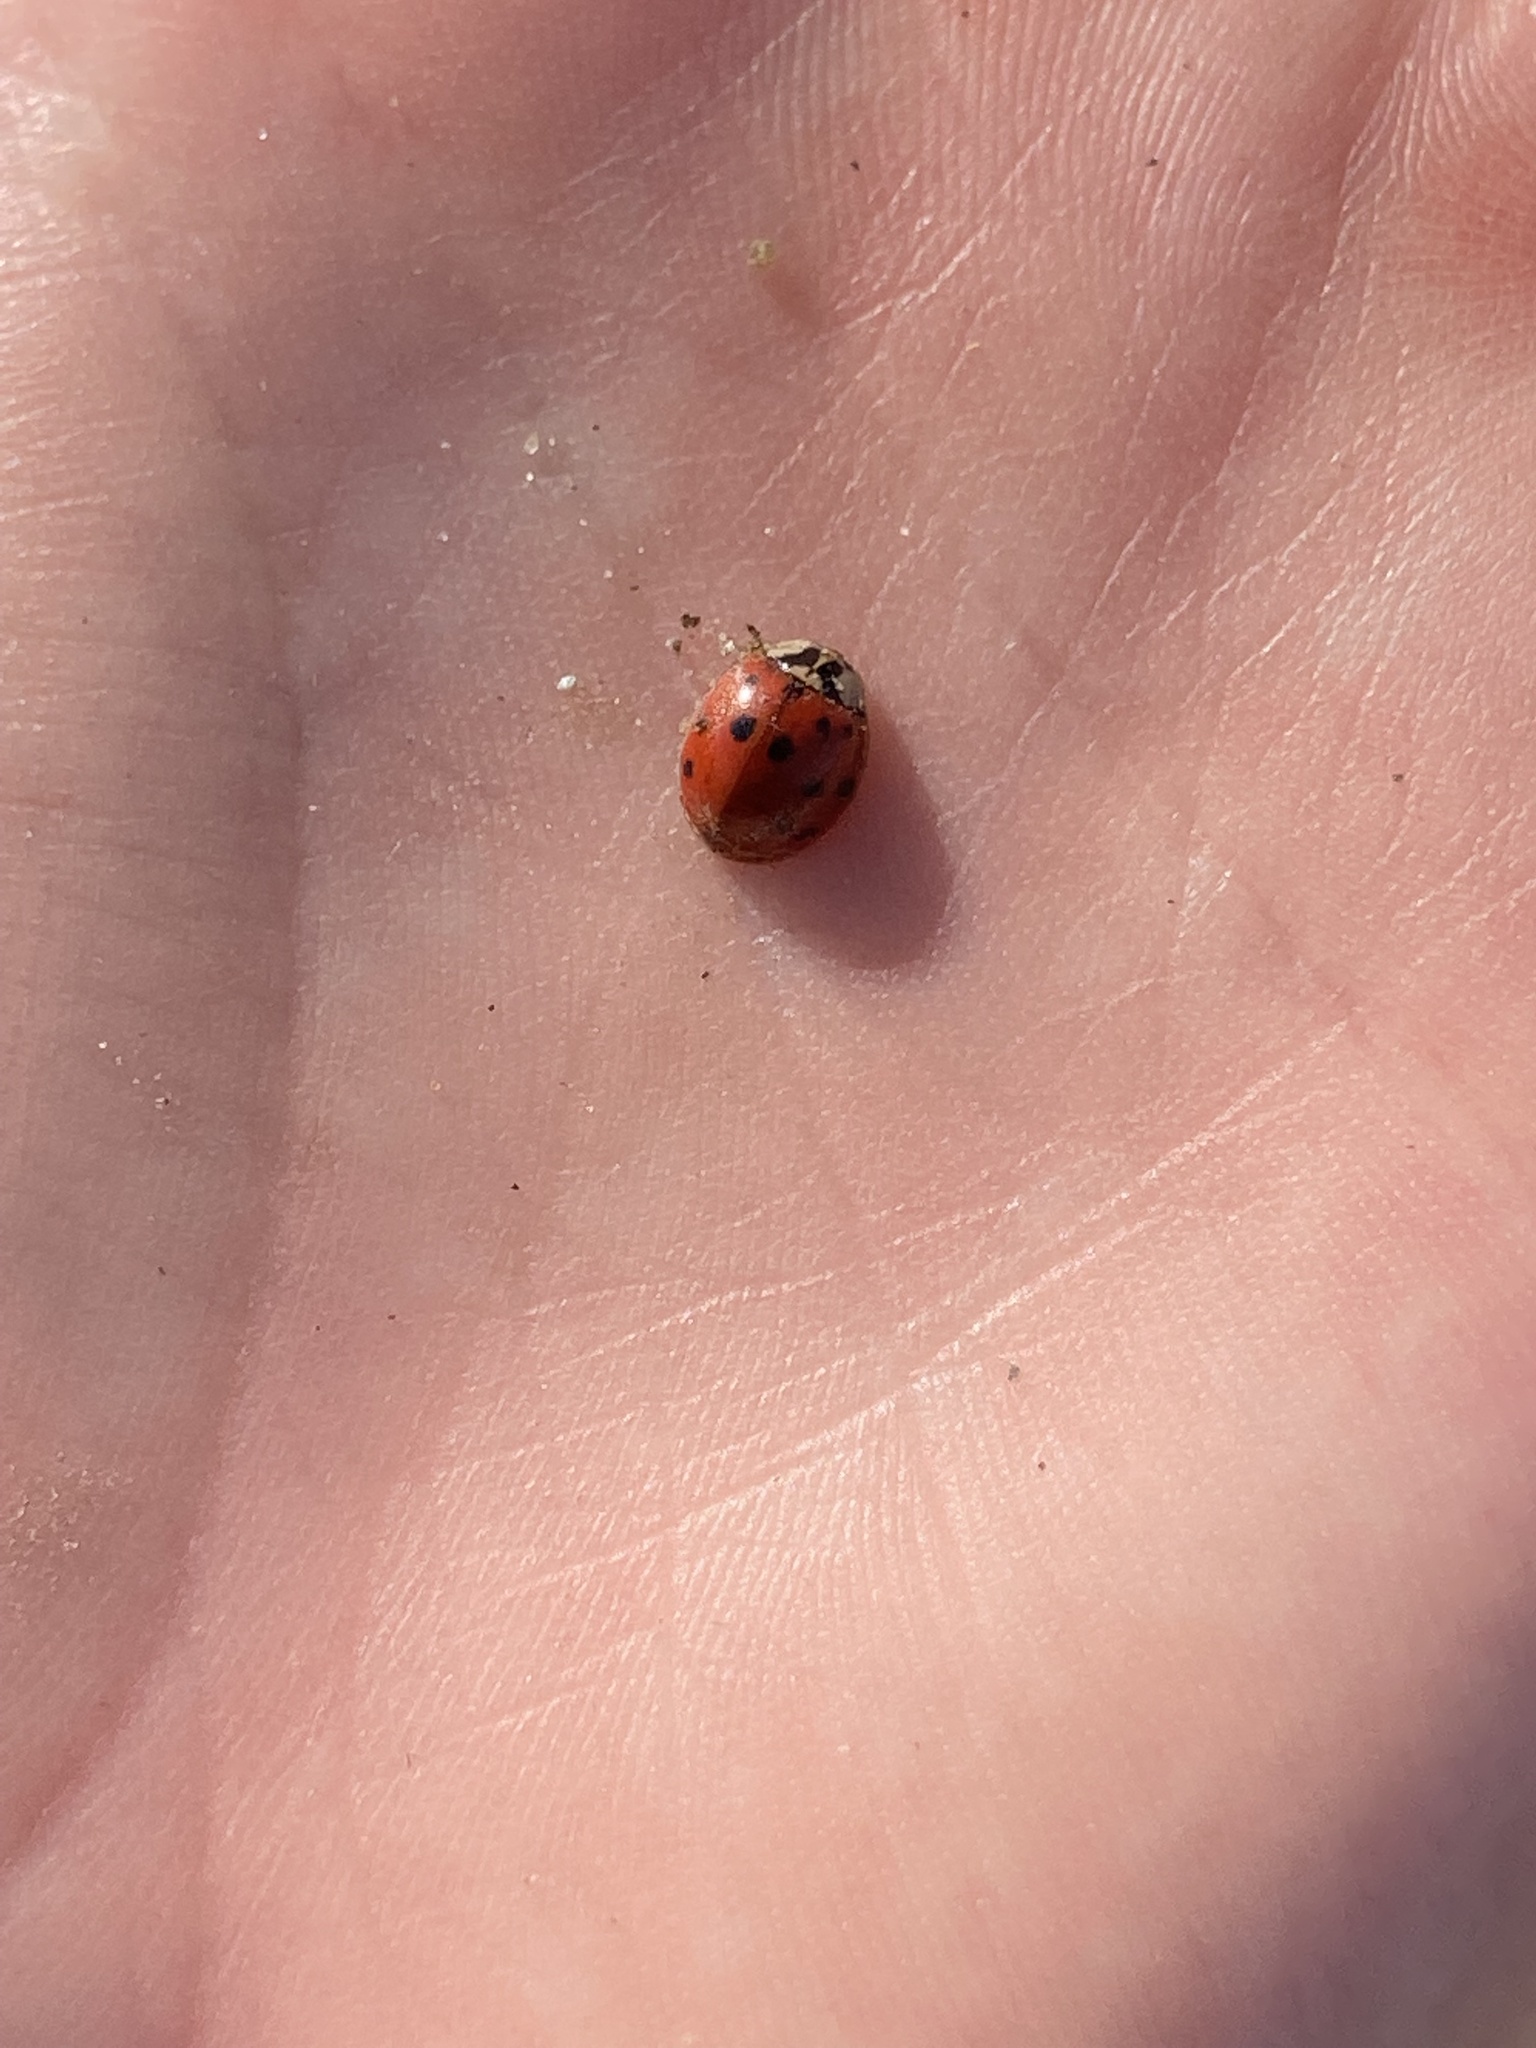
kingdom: Animalia
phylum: Arthropoda
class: Insecta
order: Coleoptera
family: Coccinellidae
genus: Harmonia
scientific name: Harmonia axyridis
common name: Harlequin ladybird
